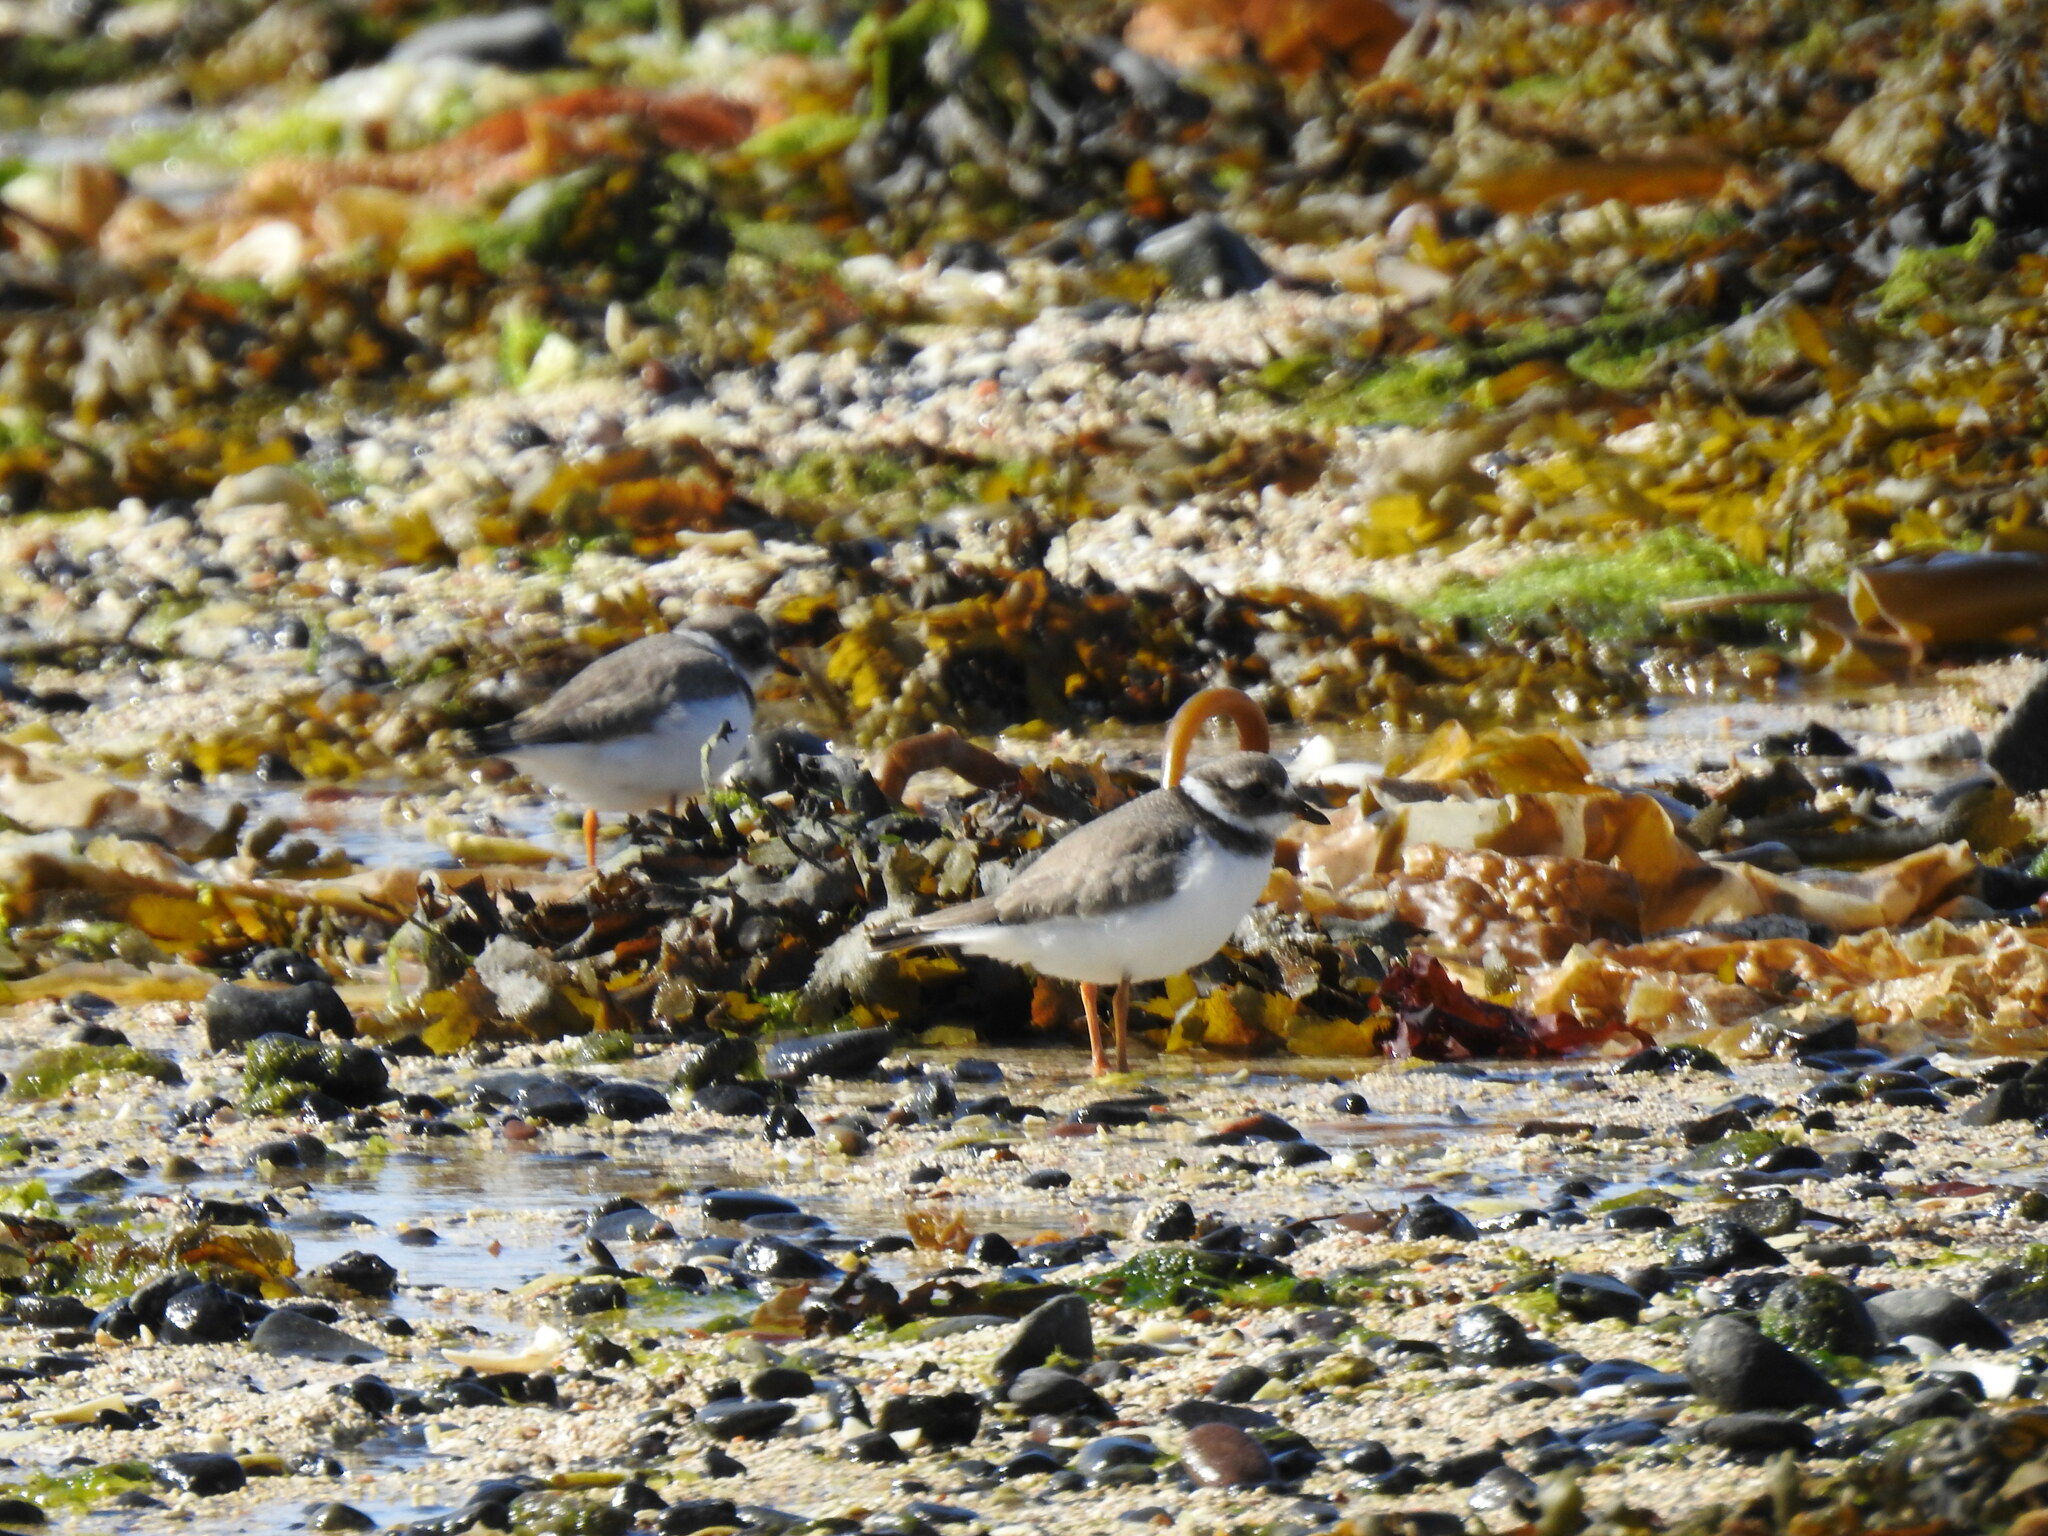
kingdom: Animalia
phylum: Chordata
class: Aves
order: Charadriiformes
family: Charadriidae
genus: Charadrius
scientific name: Charadrius hiaticula
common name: Common ringed plover
